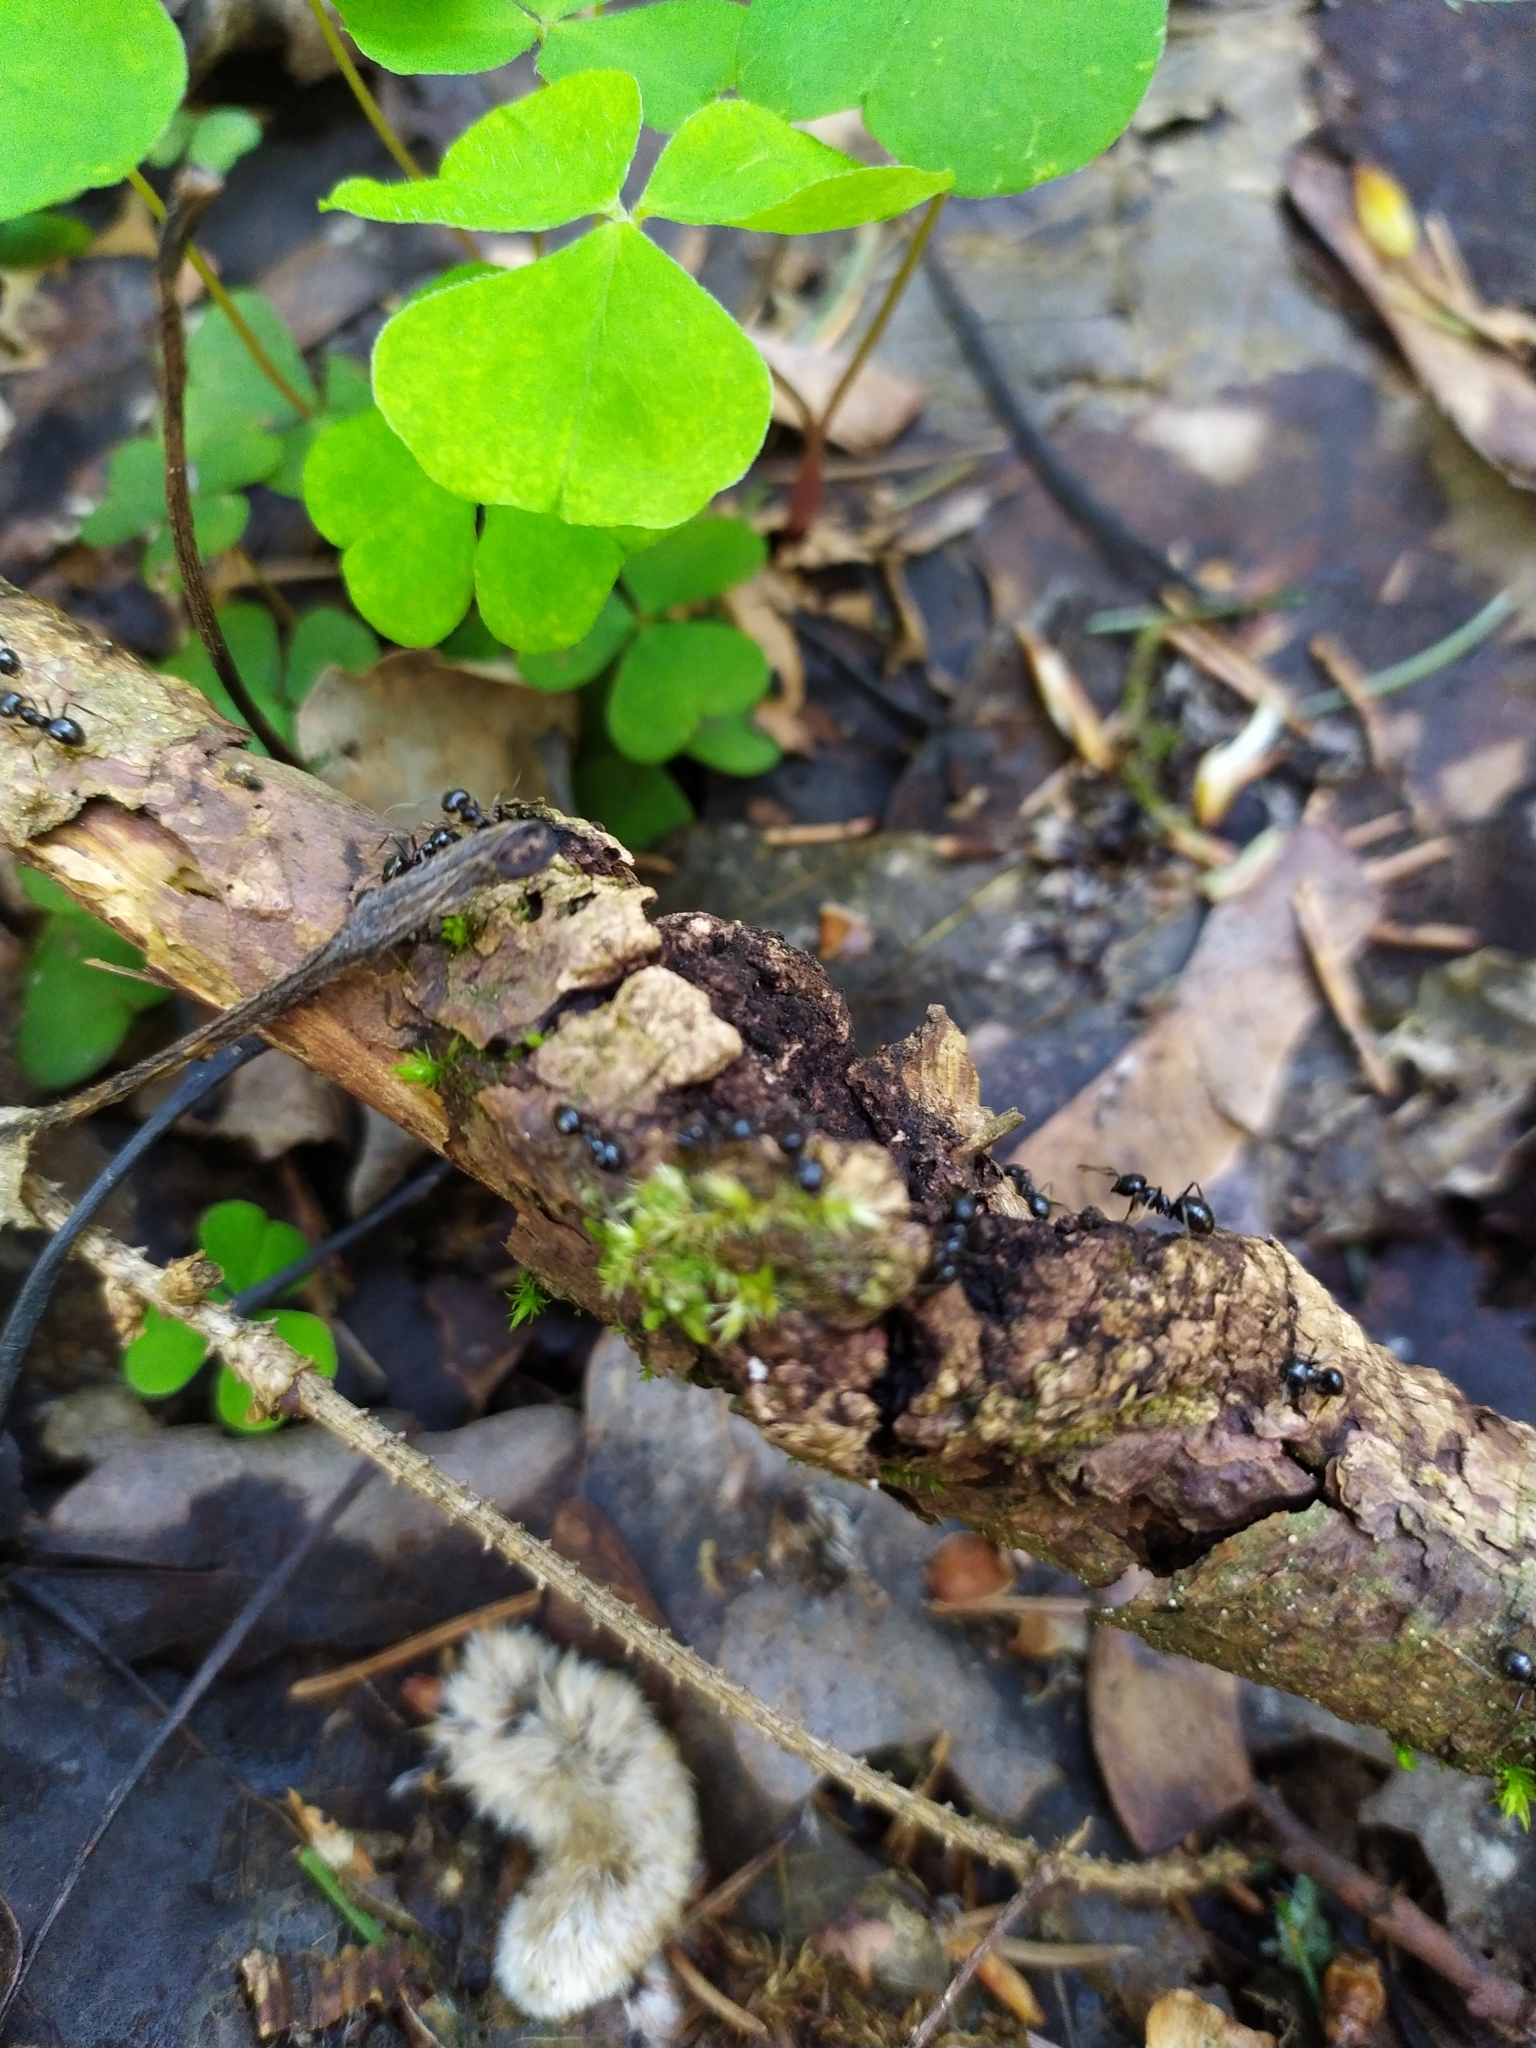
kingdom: Animalia
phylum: Arthropoda
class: Insecta
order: Hymenoptera
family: Formicidae
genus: Lasius
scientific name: Lasius fuliginosus
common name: Jet ant
